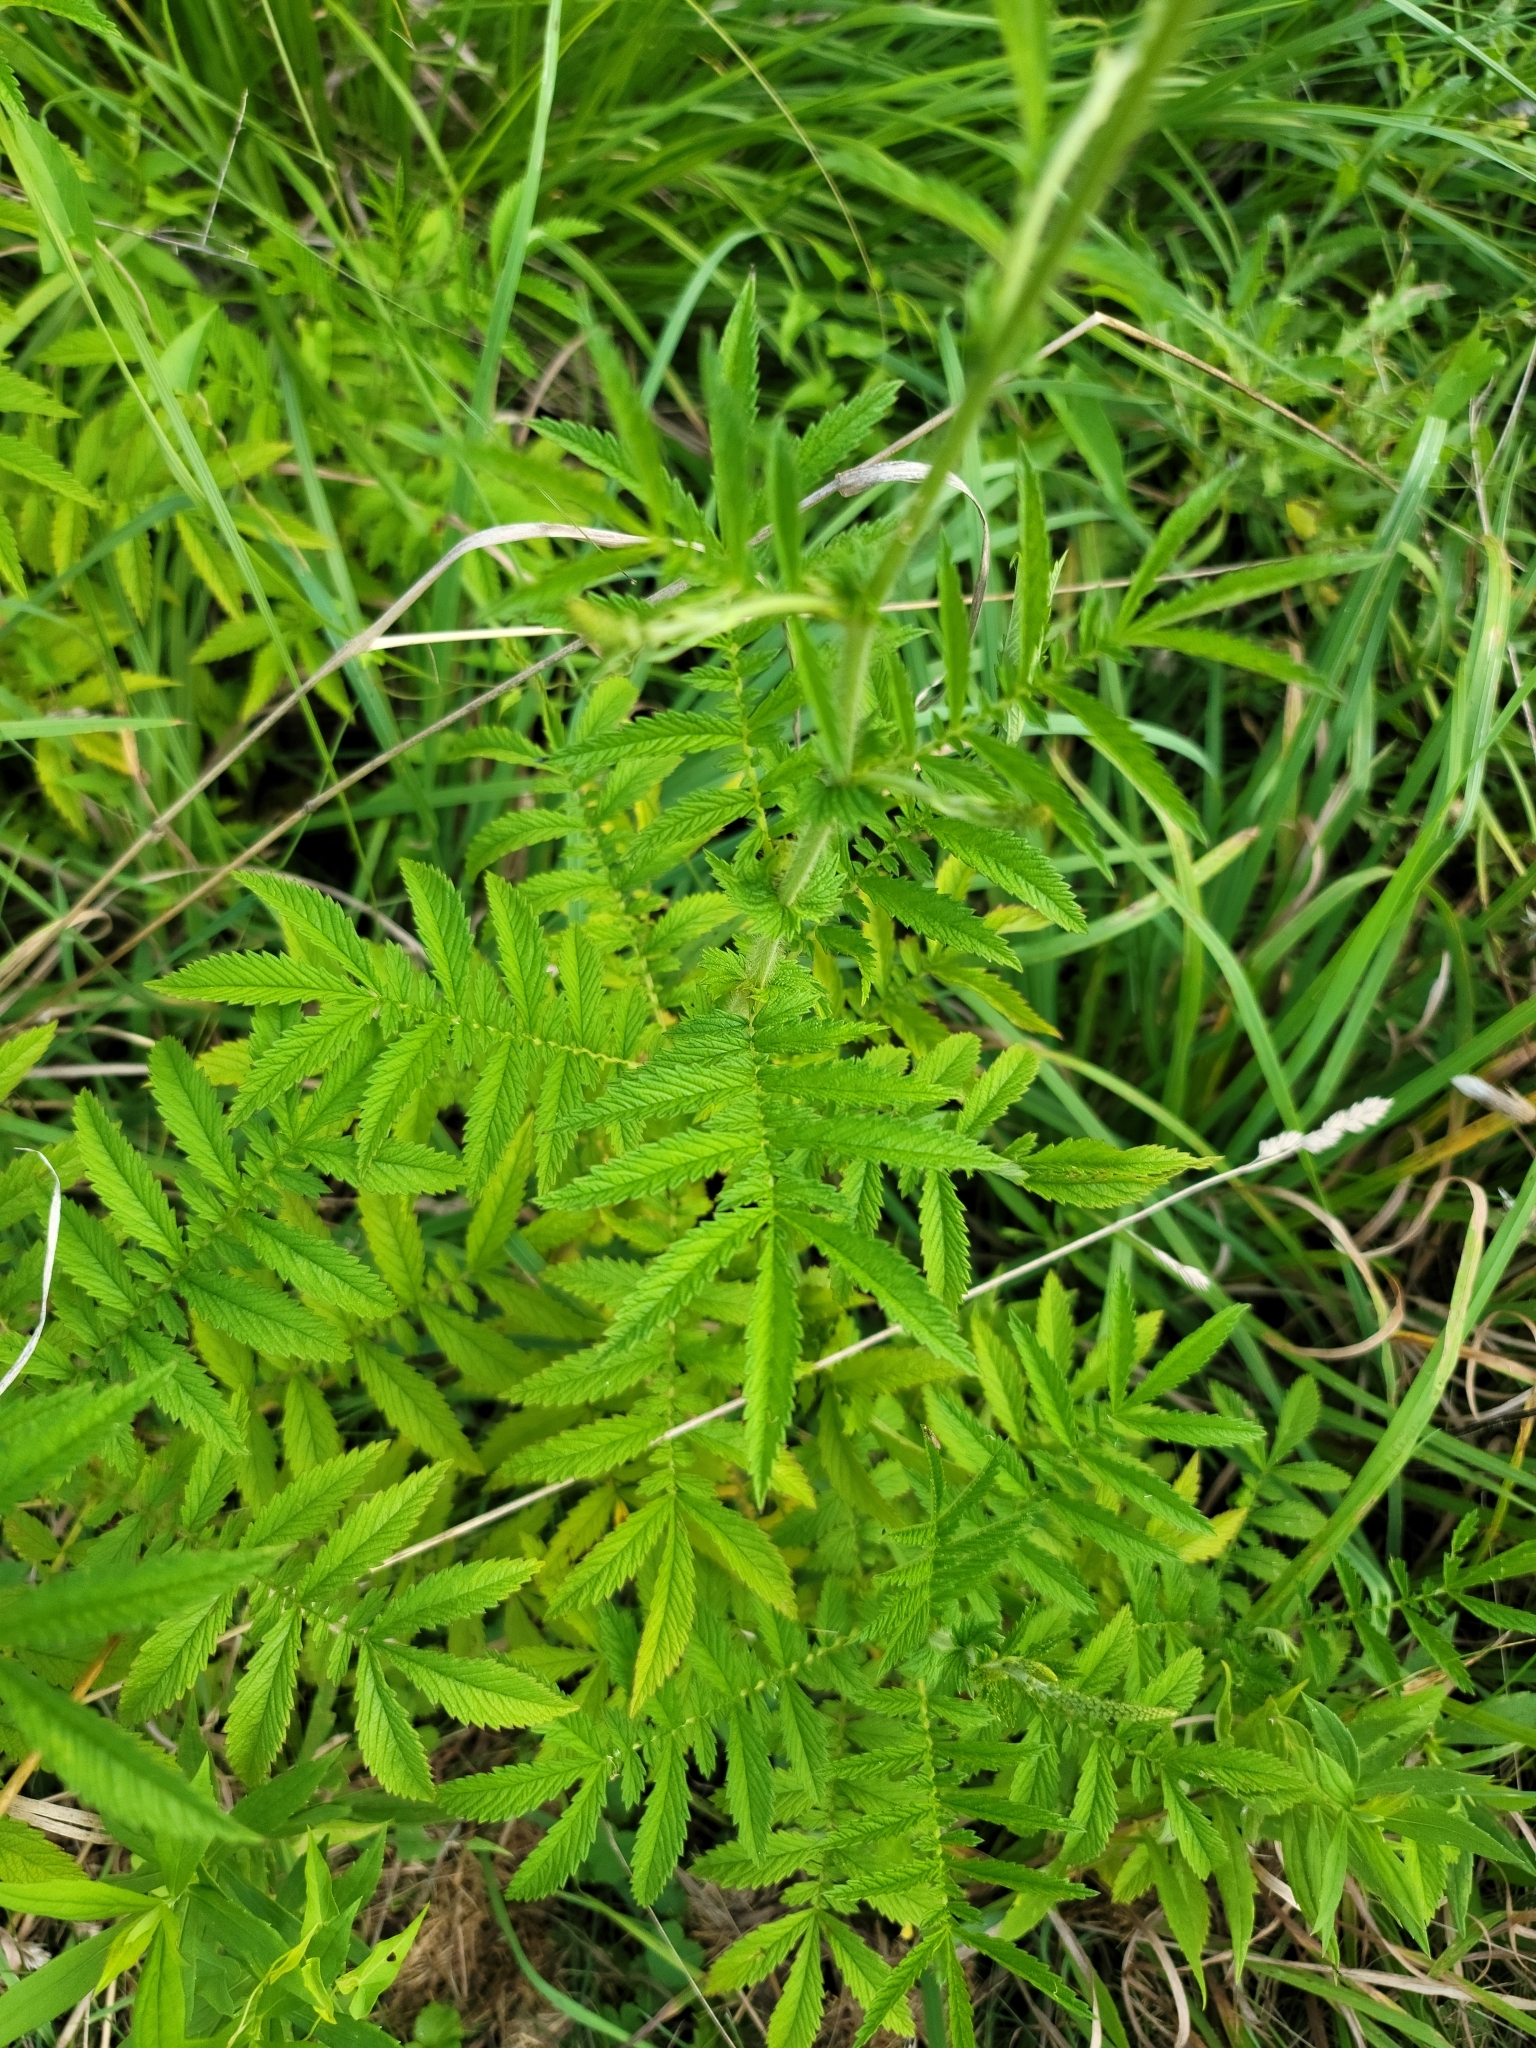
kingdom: Plantae
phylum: Tracheophyta
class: Magnoliopsida
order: Rosales
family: Rosaceae
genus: Agrimonia
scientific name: Agrimonia parviflora
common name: Harvest-lice
